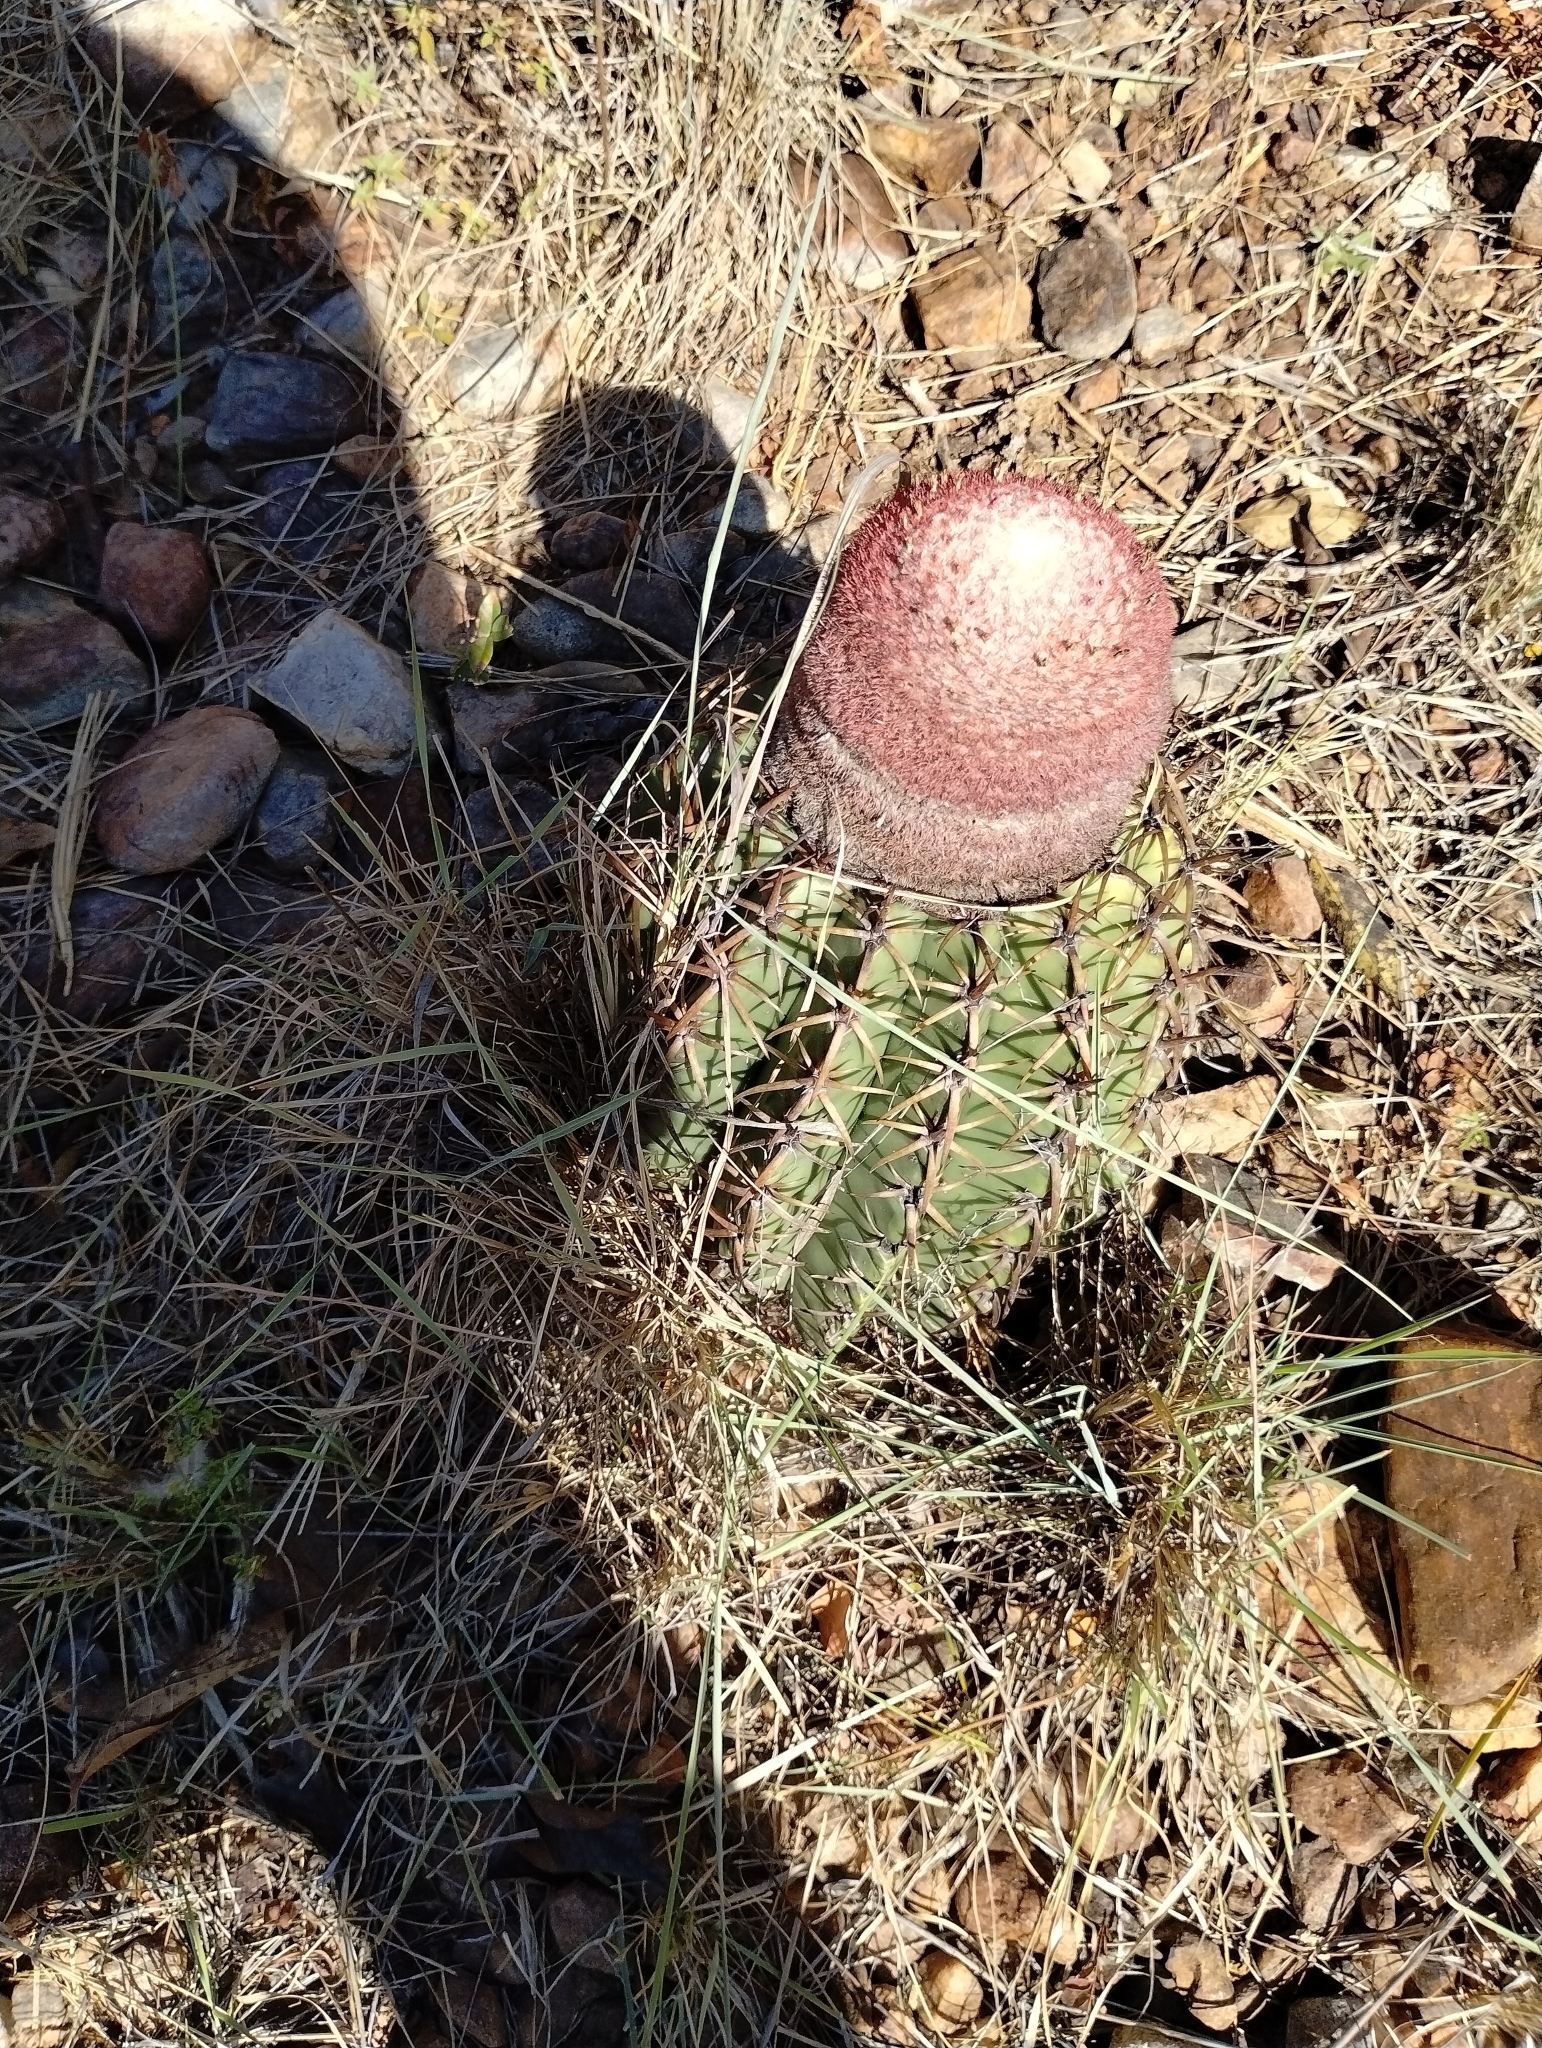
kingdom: Plantae
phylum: Tracheophyta
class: Magnoliopsida
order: Caryophyllales
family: Cactaceae
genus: Melocactus
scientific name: Melocactus zehntneri
